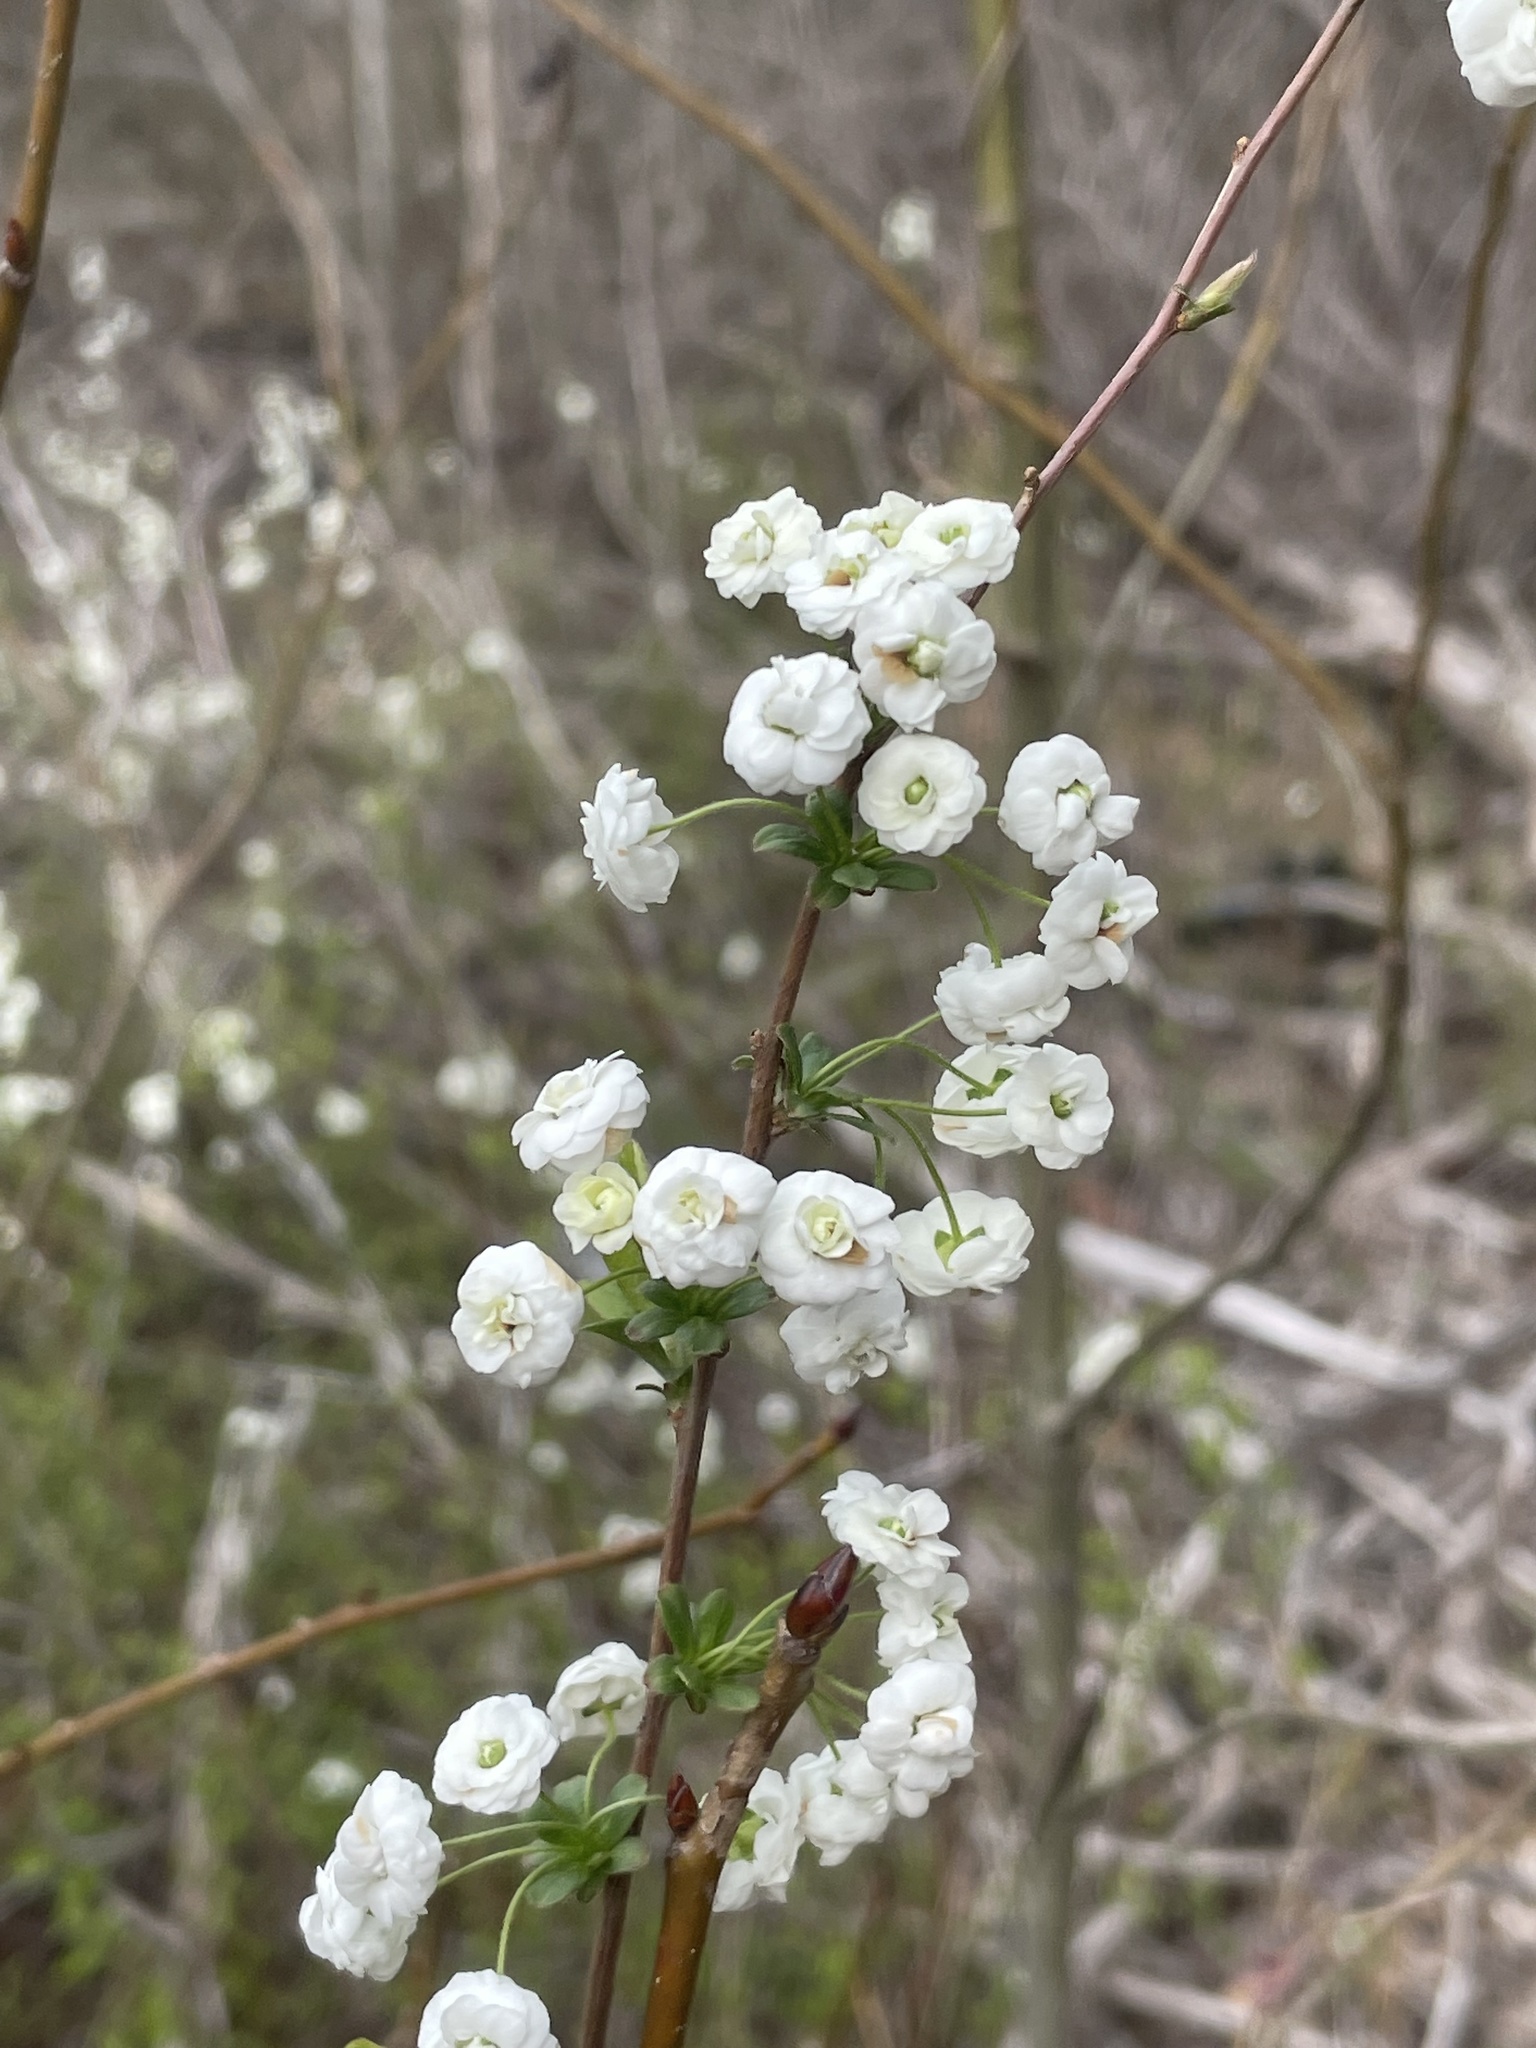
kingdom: Plantae
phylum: Tracheophyta
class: Magnoliopsida
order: Rosales
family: Rosaceae
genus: Spiraea
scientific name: Spiraea prunifolia
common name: Bridal-wreath spiraea
